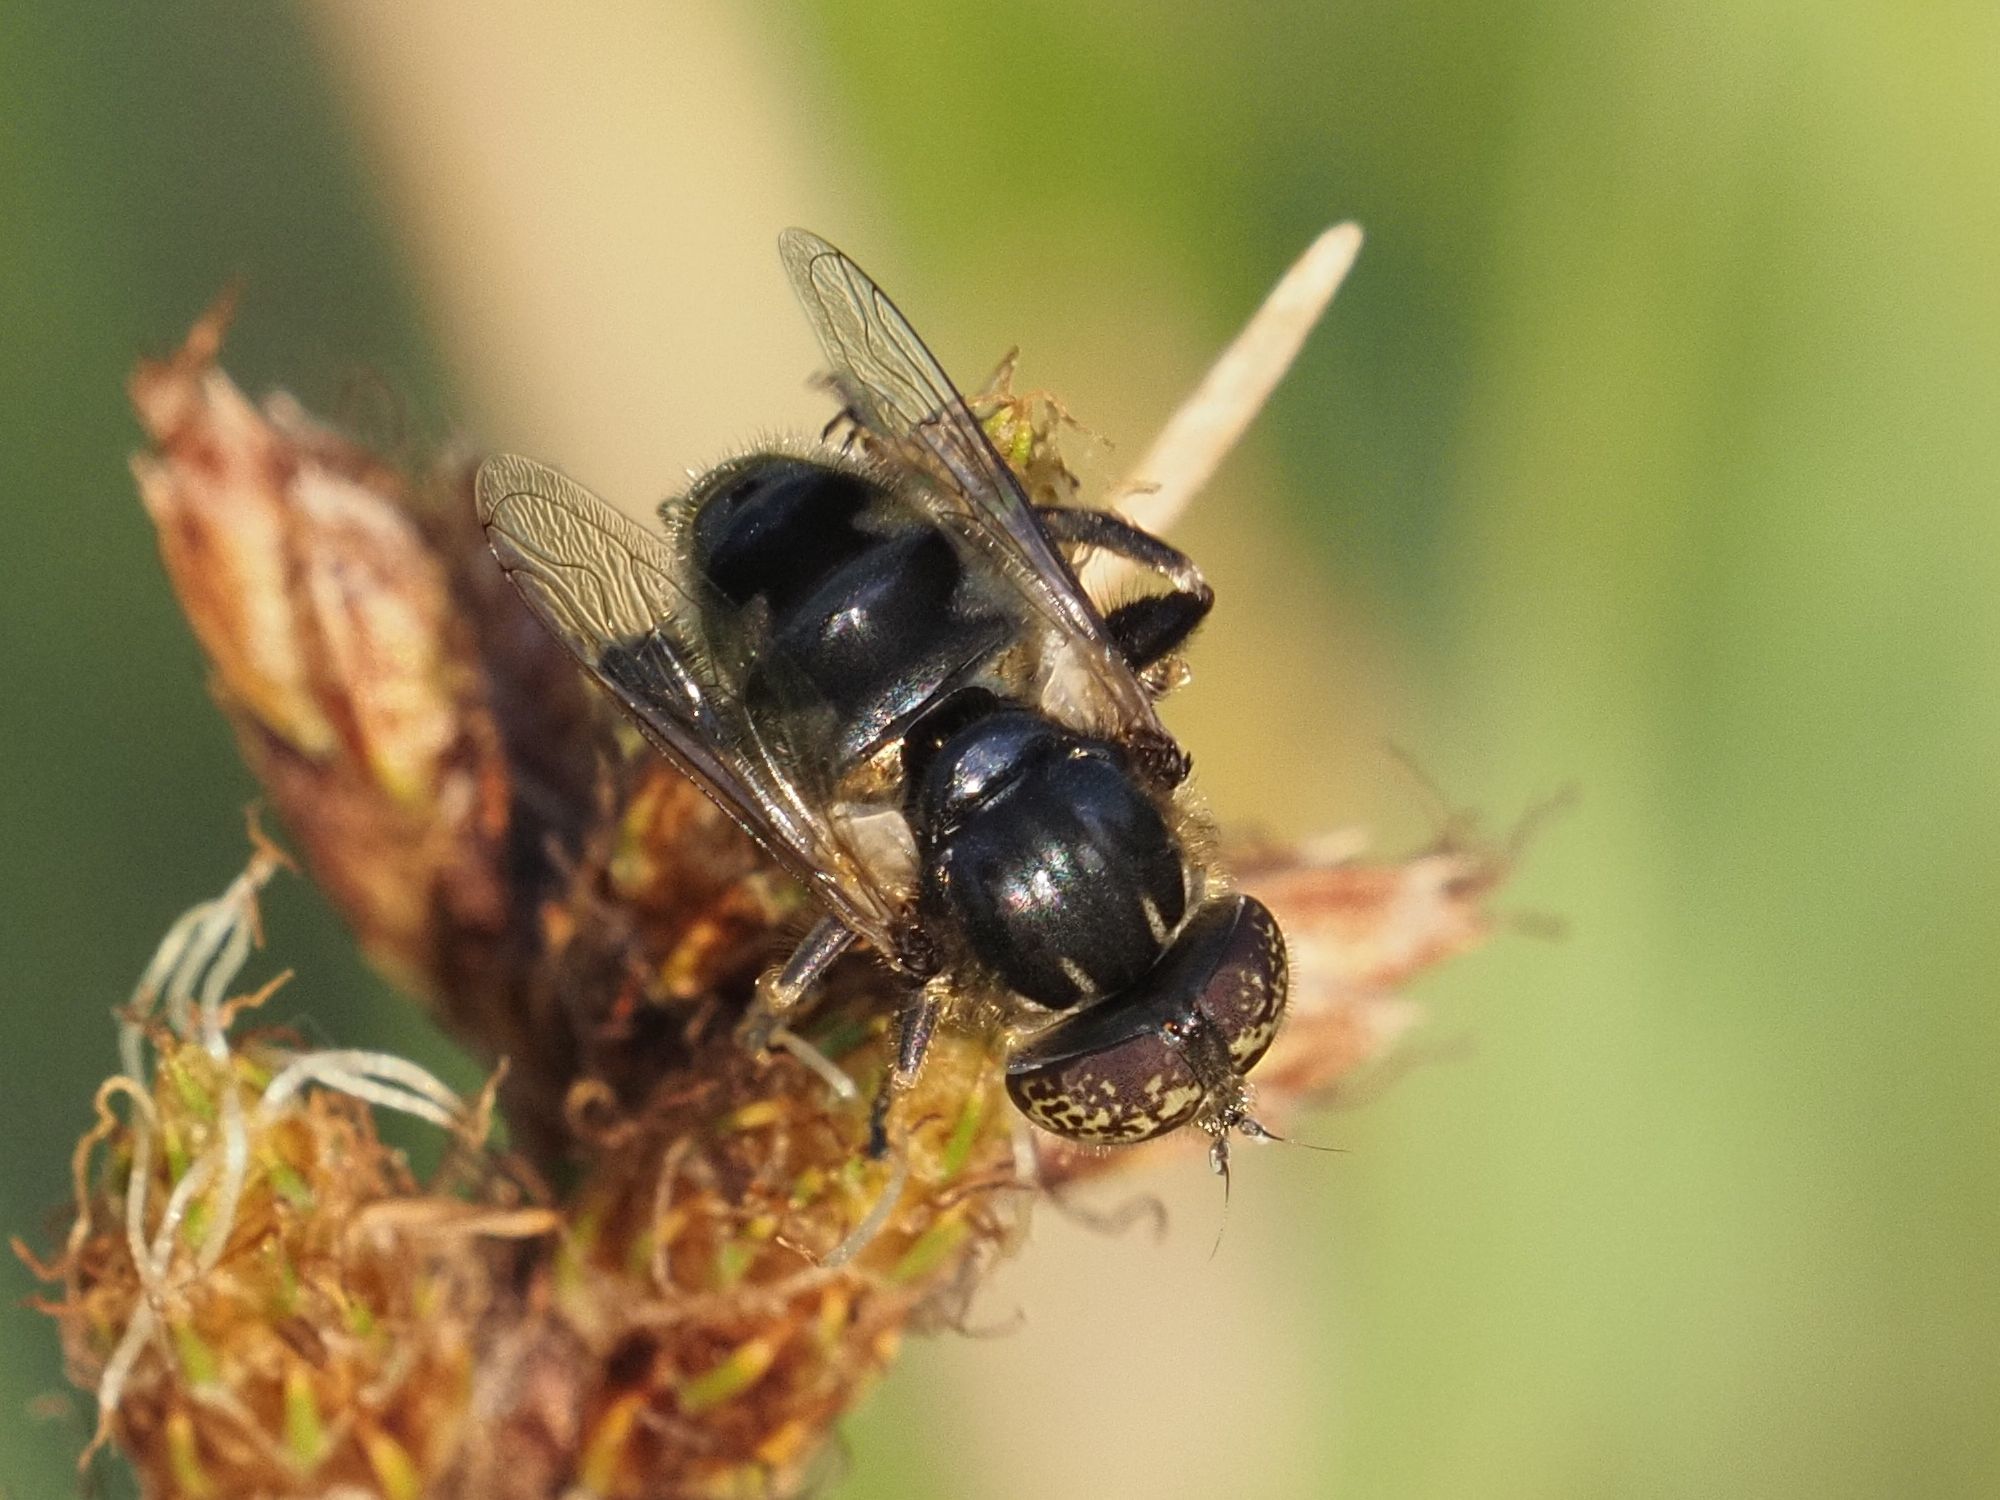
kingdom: Animalia
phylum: Arthropoda
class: Insecta
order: Diptera
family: Syrphidae
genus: Eristalinus
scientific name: Eristalinus sepulchralis
